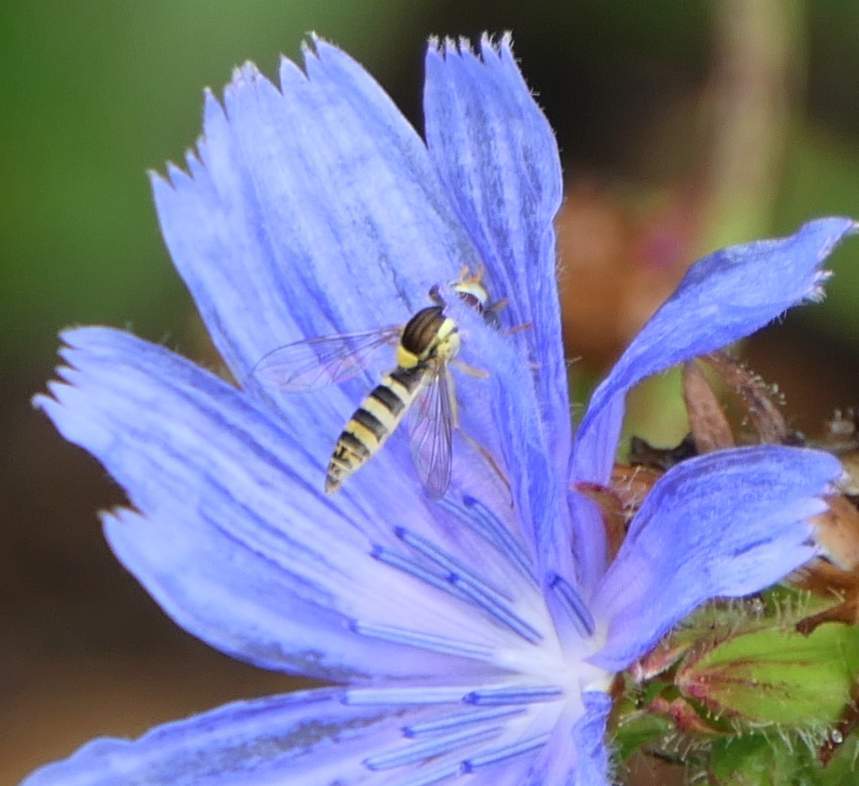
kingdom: Animalia
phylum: Arthropoda
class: Insecta
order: Diptera
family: Syrphidae
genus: Sphaerophoria
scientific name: Sphaerophoria
